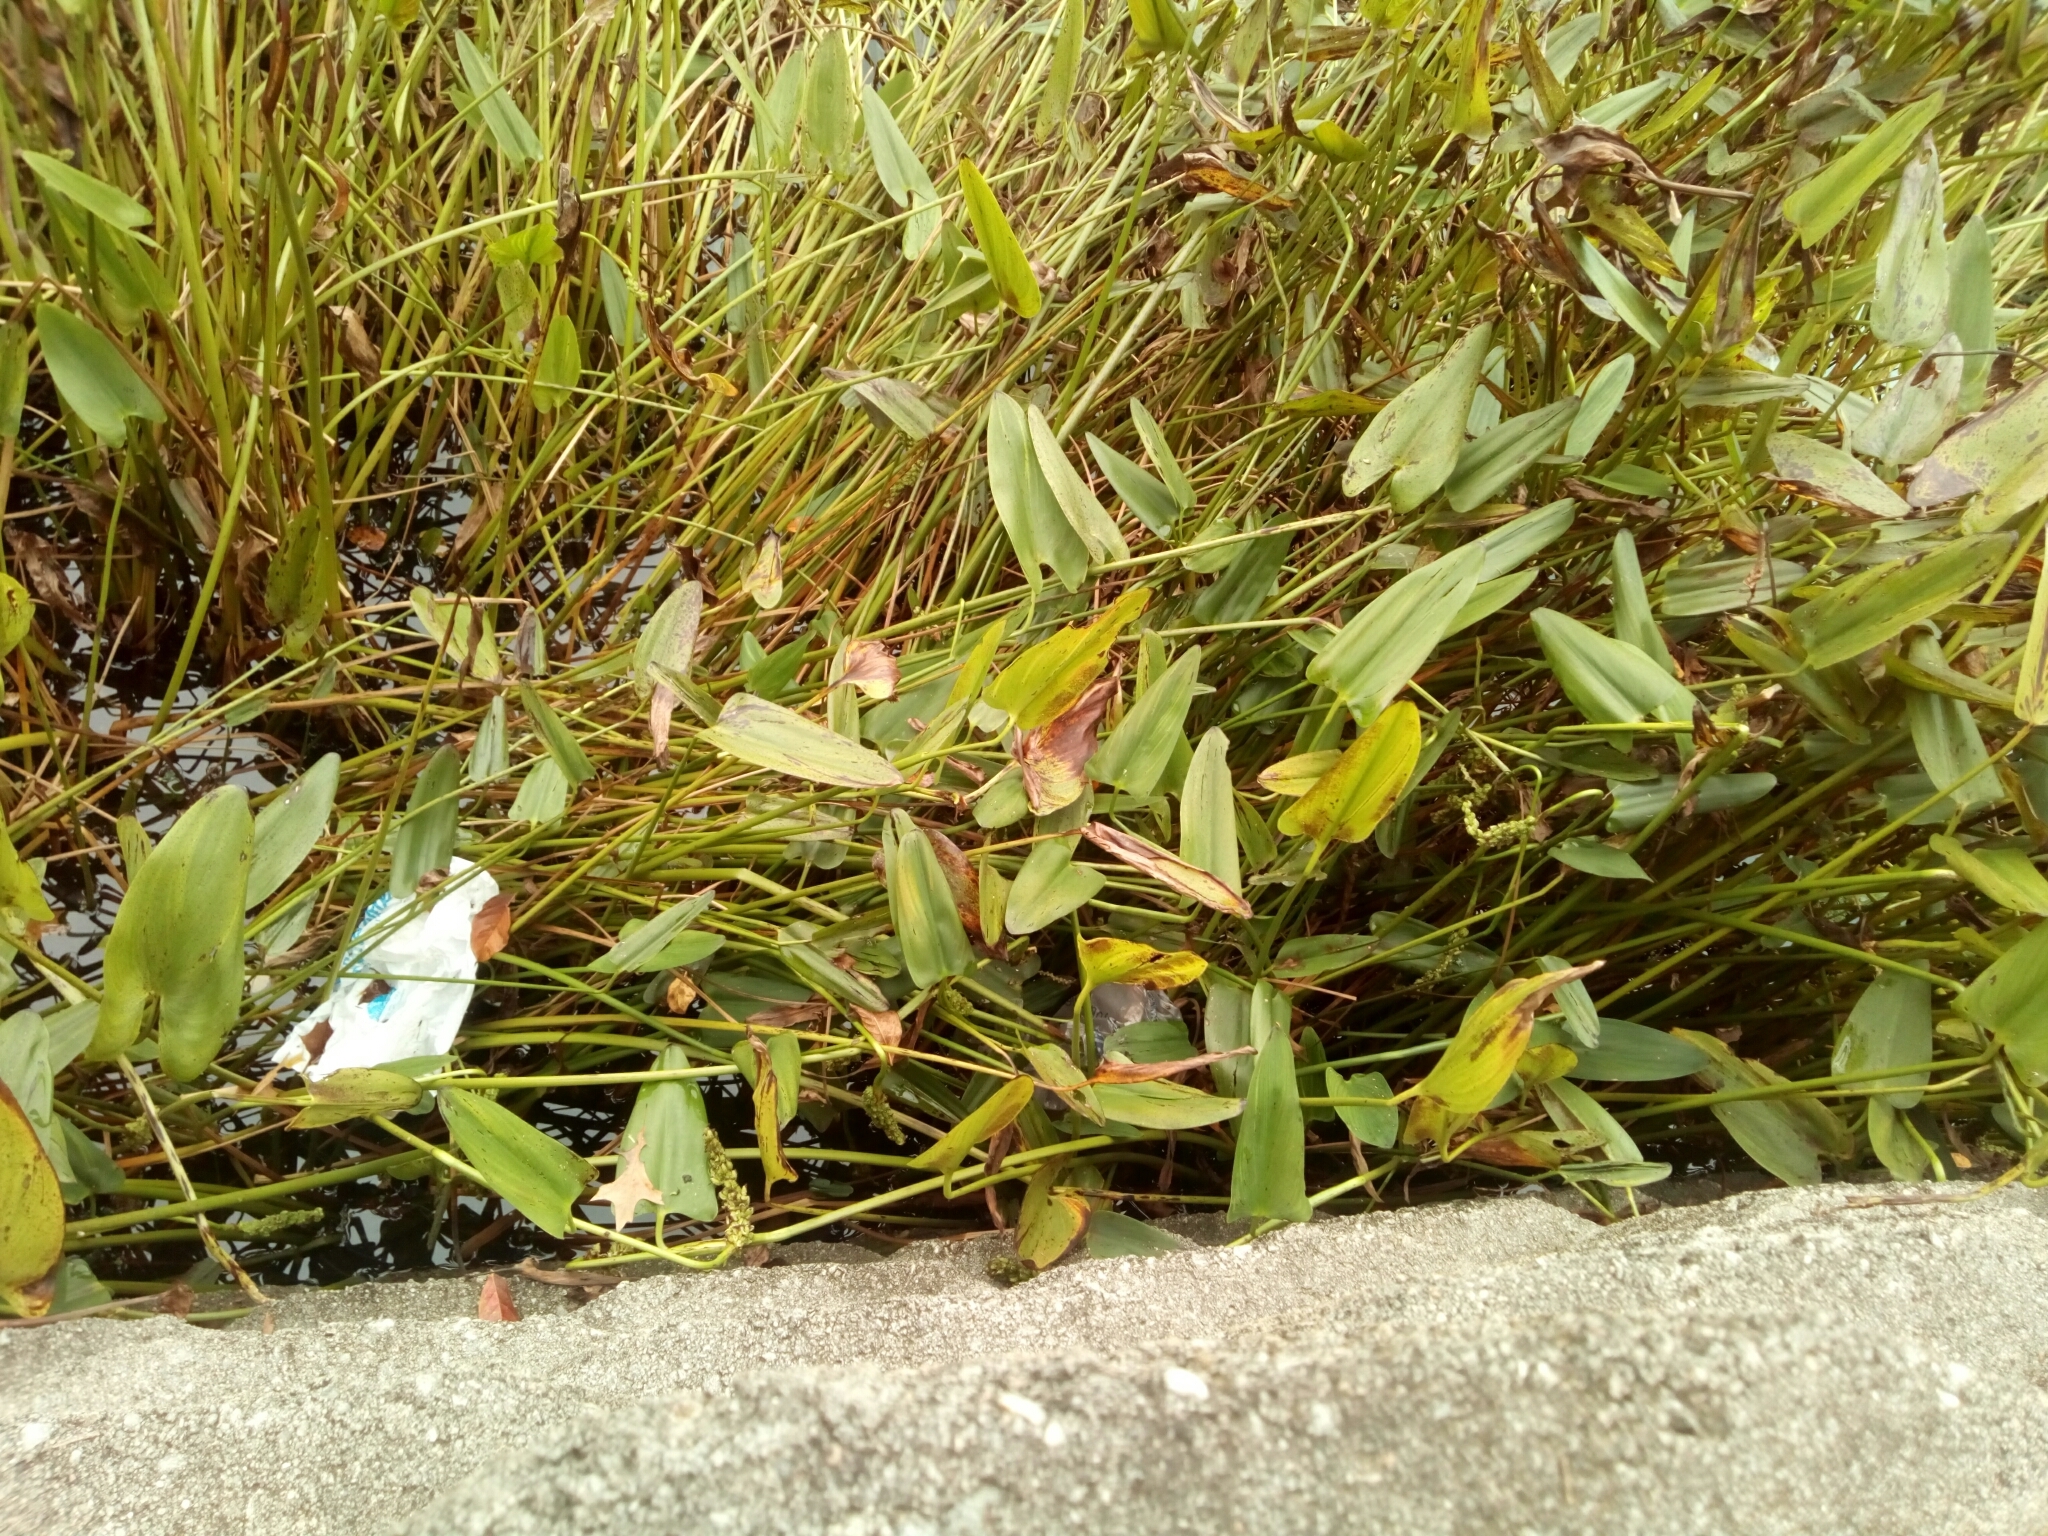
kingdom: Plantae
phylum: Tracheophyta
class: Liliopsida
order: Commelinales
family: Pontederiaceae
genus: Pontederia
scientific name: Pontederia cordata
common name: Pickerelweed
